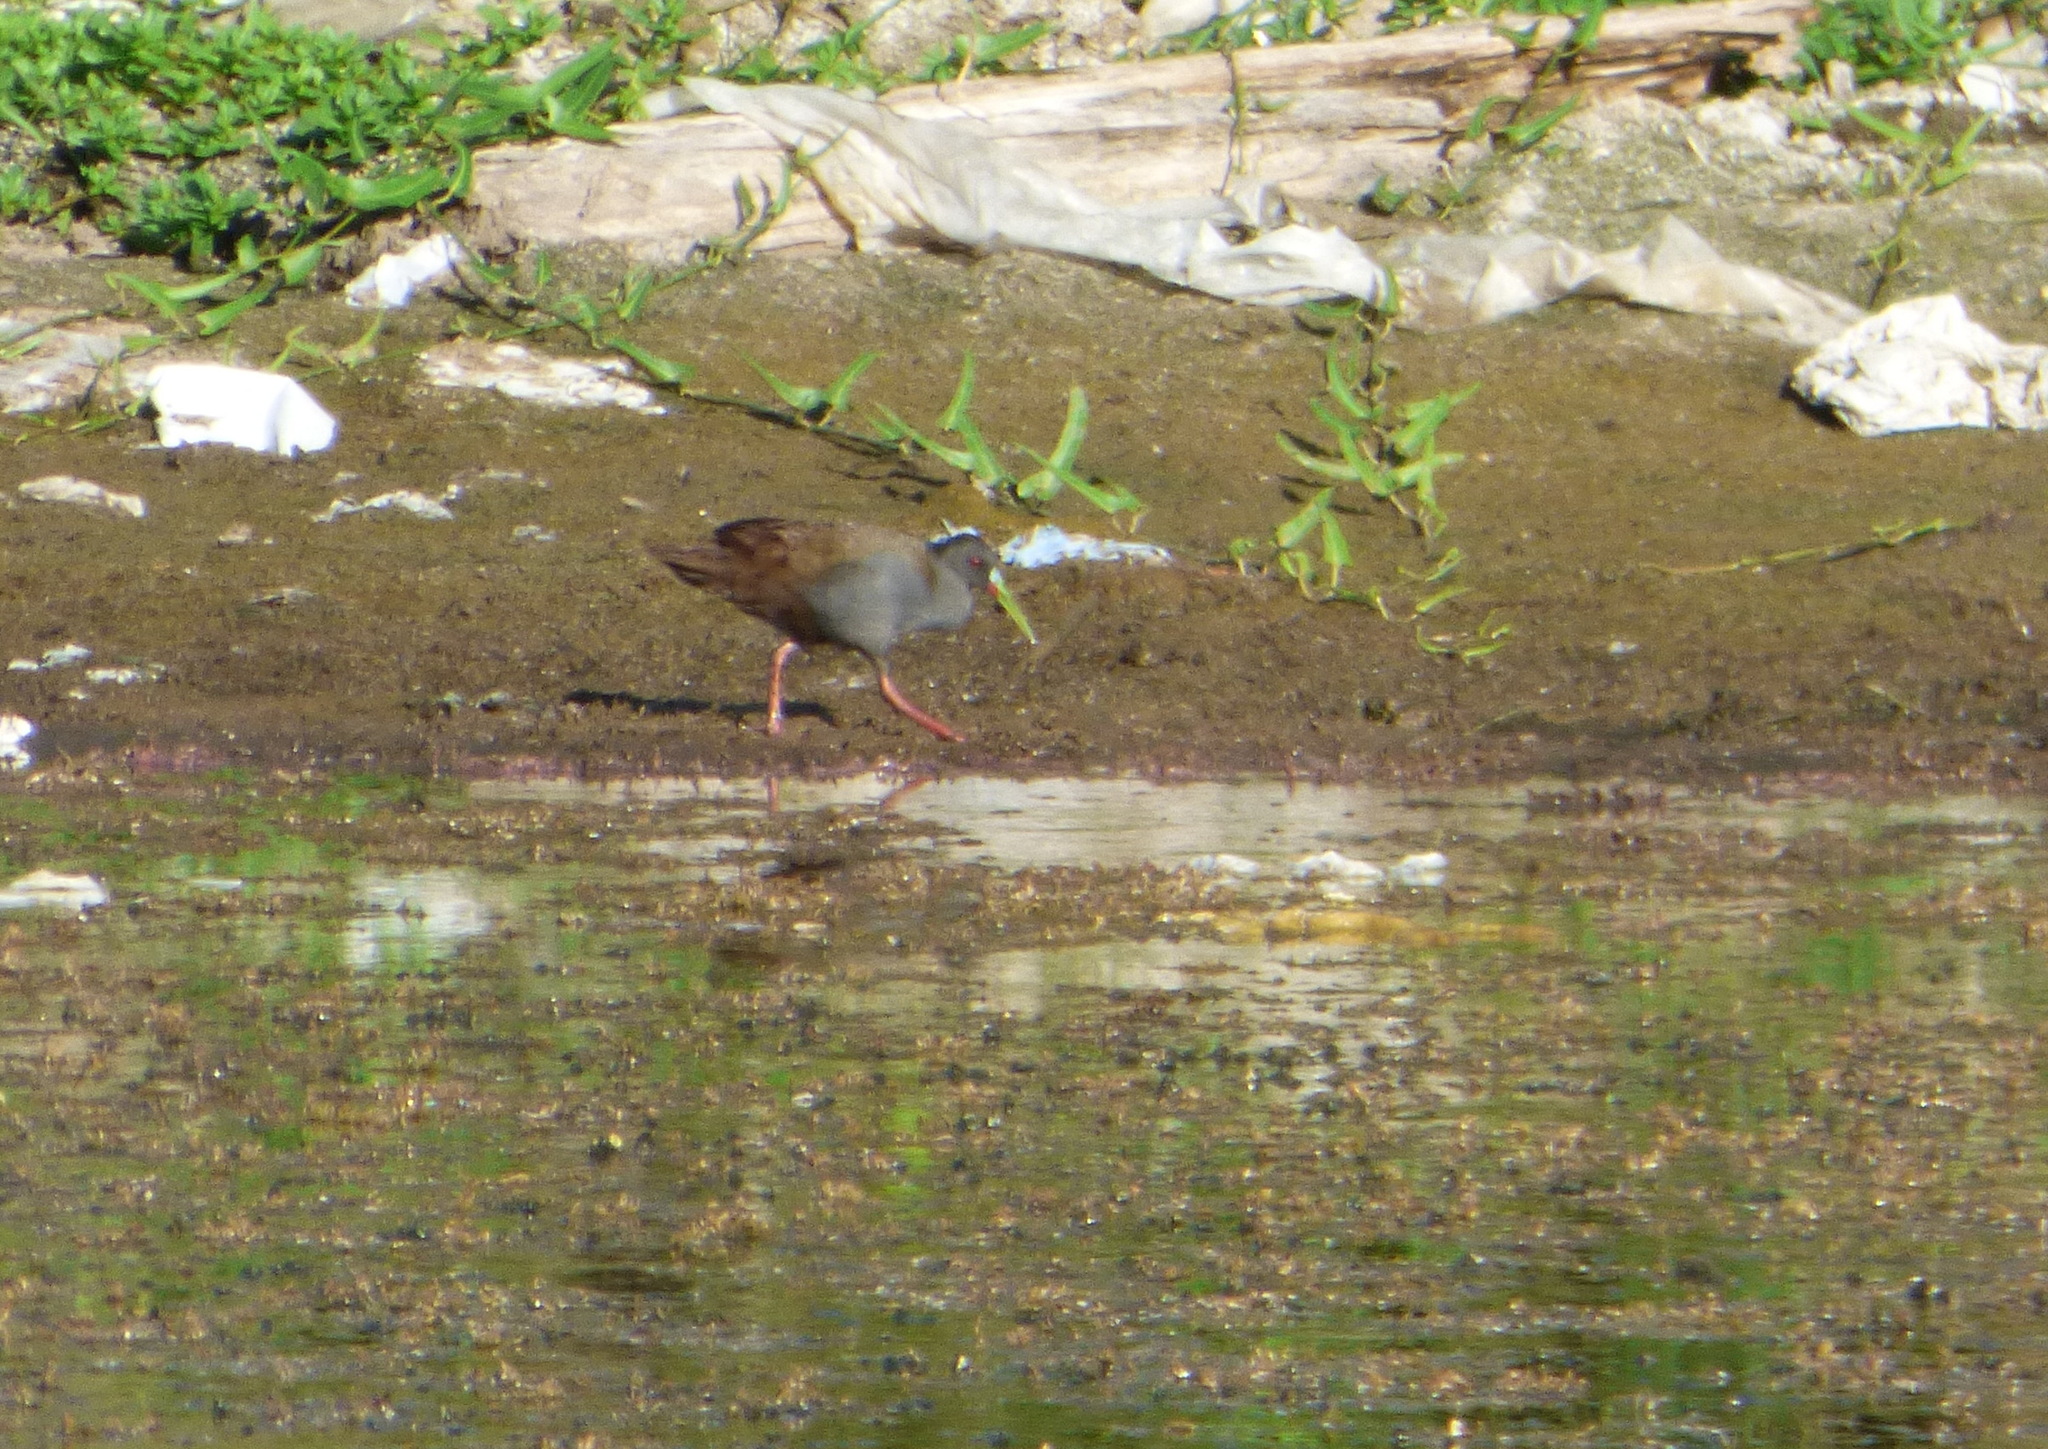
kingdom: Animalia
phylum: Chordata
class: Aves
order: Gruiformes
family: Rallidae
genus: Pardirallus
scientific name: Pardirallus sanguinolentus
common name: Plumbeous rail
